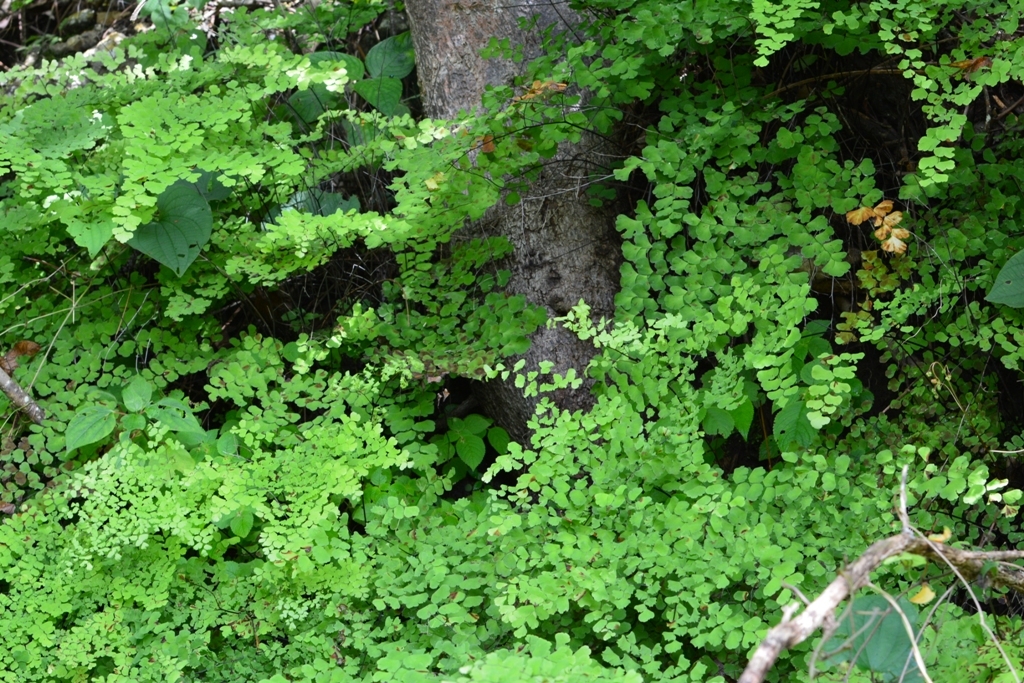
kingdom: Plantae
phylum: Tracheophyta
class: Polypodiopsida
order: Polypodiales
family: Pteridaceae
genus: Adiantum
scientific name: Adiantum tenerum
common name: Fan maidenhair
